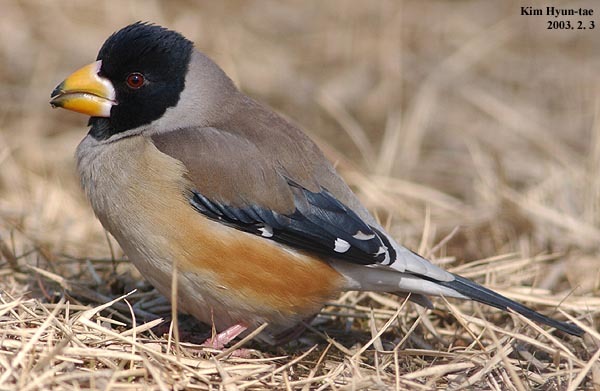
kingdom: Animalia
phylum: Chordata
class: Aves
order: Passeriformes
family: Fringillidae
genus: Eophona
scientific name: Eophona migratoria
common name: Yellow-billed grosbeak
